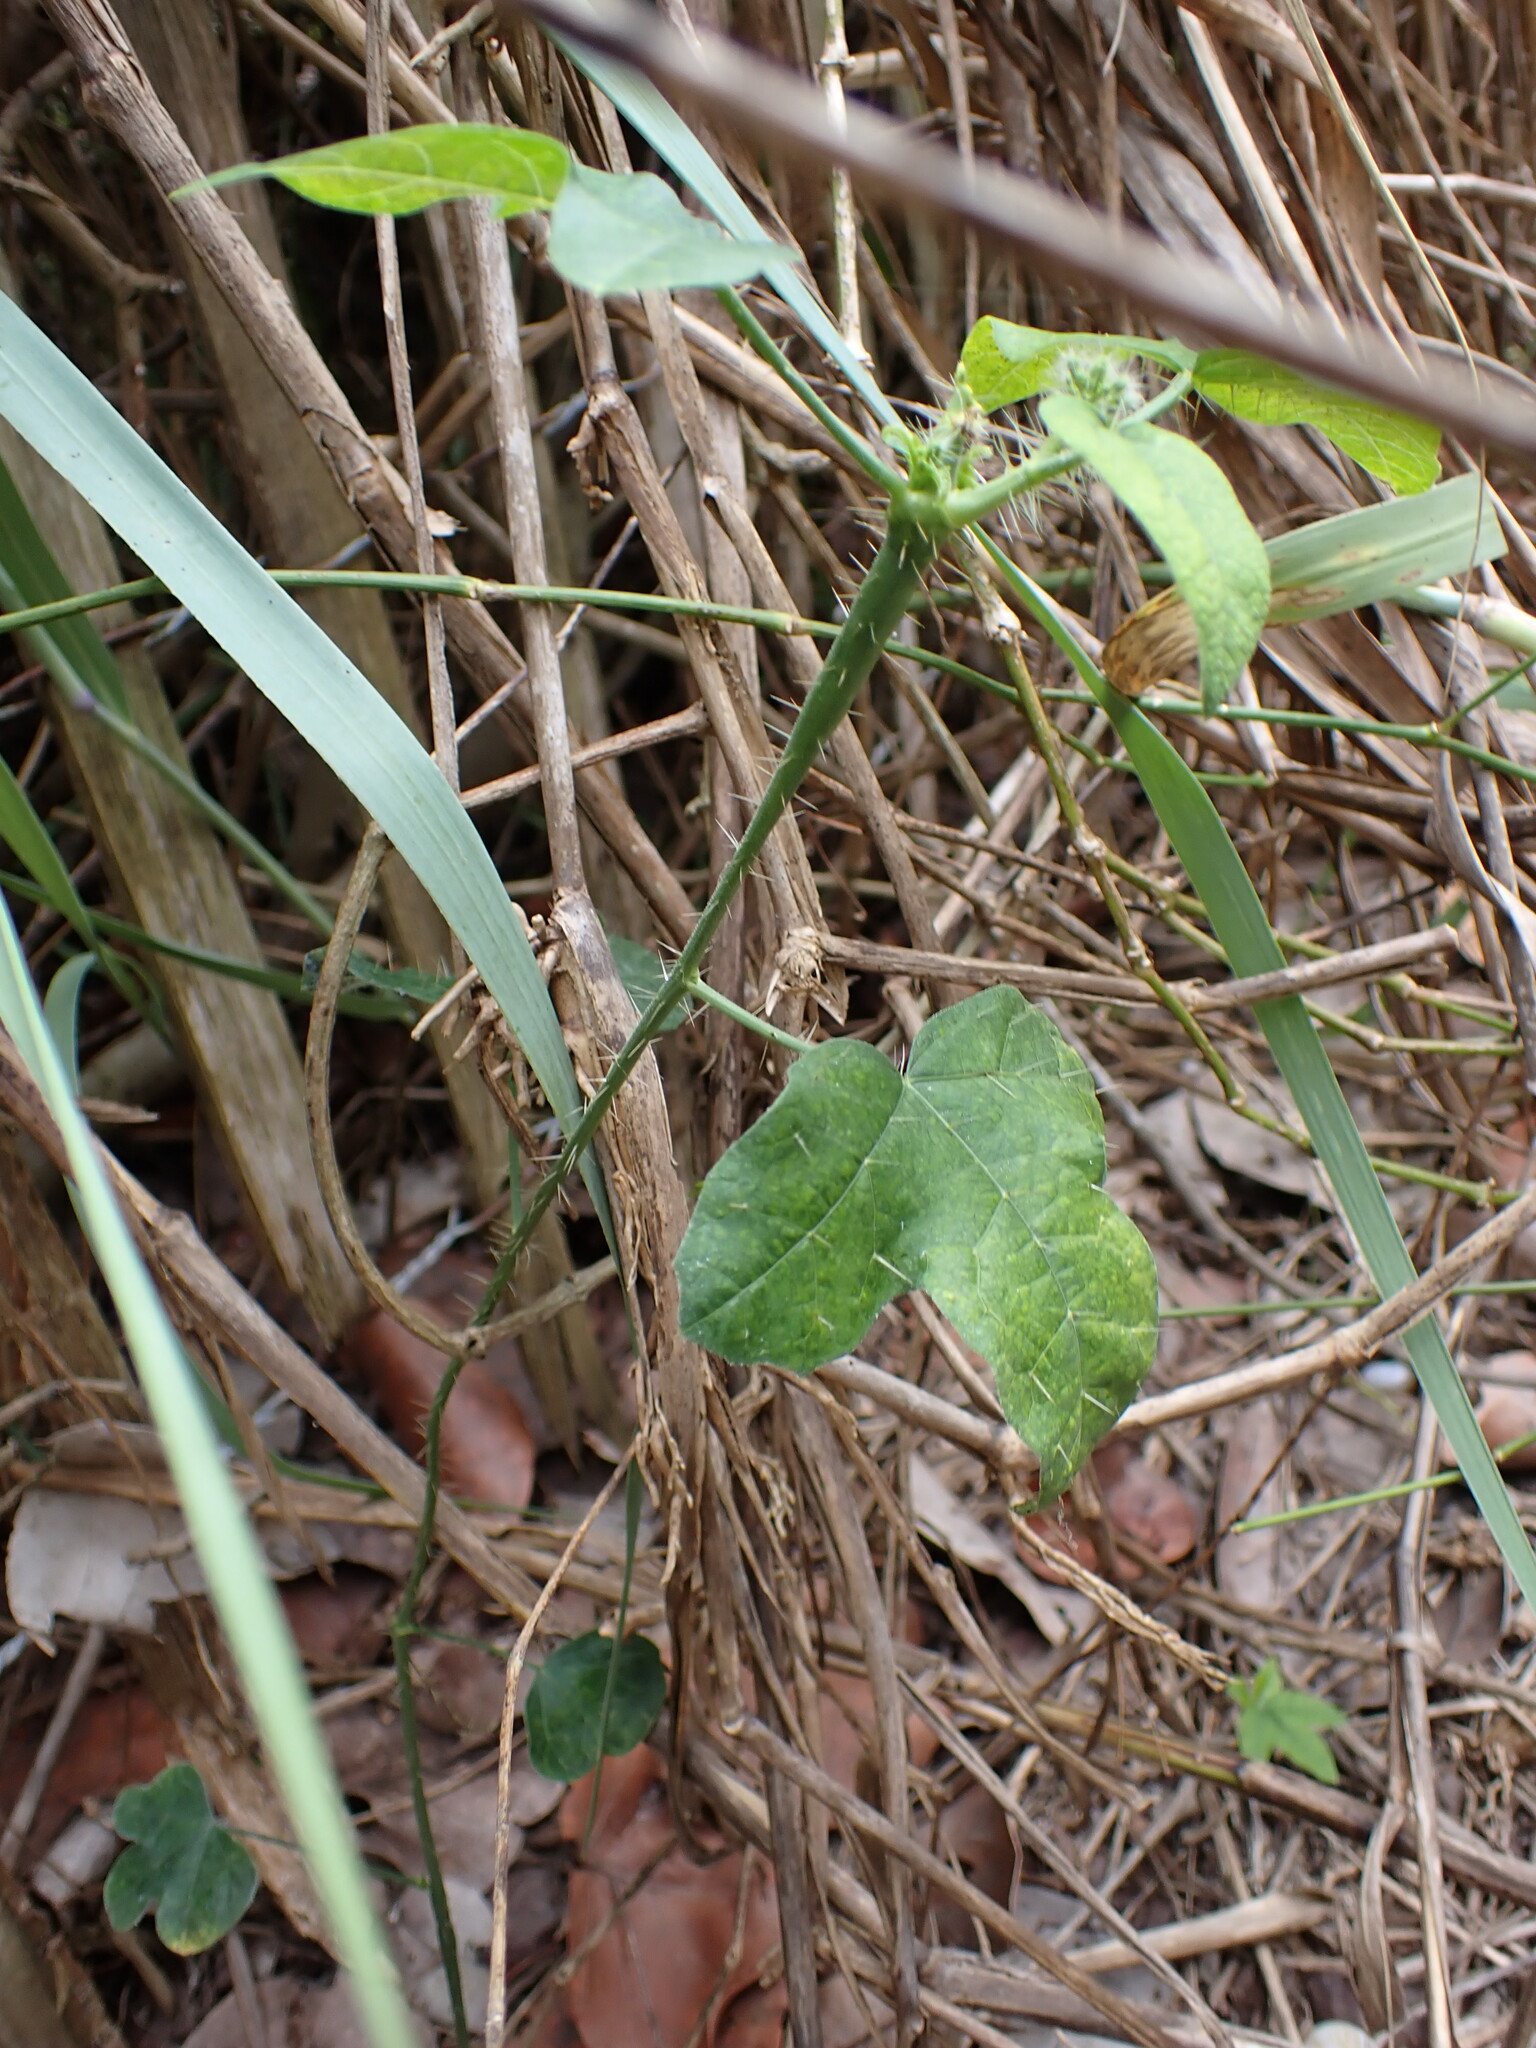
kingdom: Plantae
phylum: Tracheophyta
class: Magnoliopsida
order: Malpighiales
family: Euphorbiaceae
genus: Cnidoscolus
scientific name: Cnidoscolus stimulosus
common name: Bull-nettle
